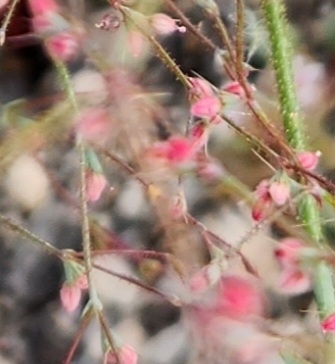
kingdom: Plantae
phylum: Tracheophyta
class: Magnoliopsida
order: Caryophyllales
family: Polygonaceae
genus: Oxytheca
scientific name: Oxytheca dendroidea
